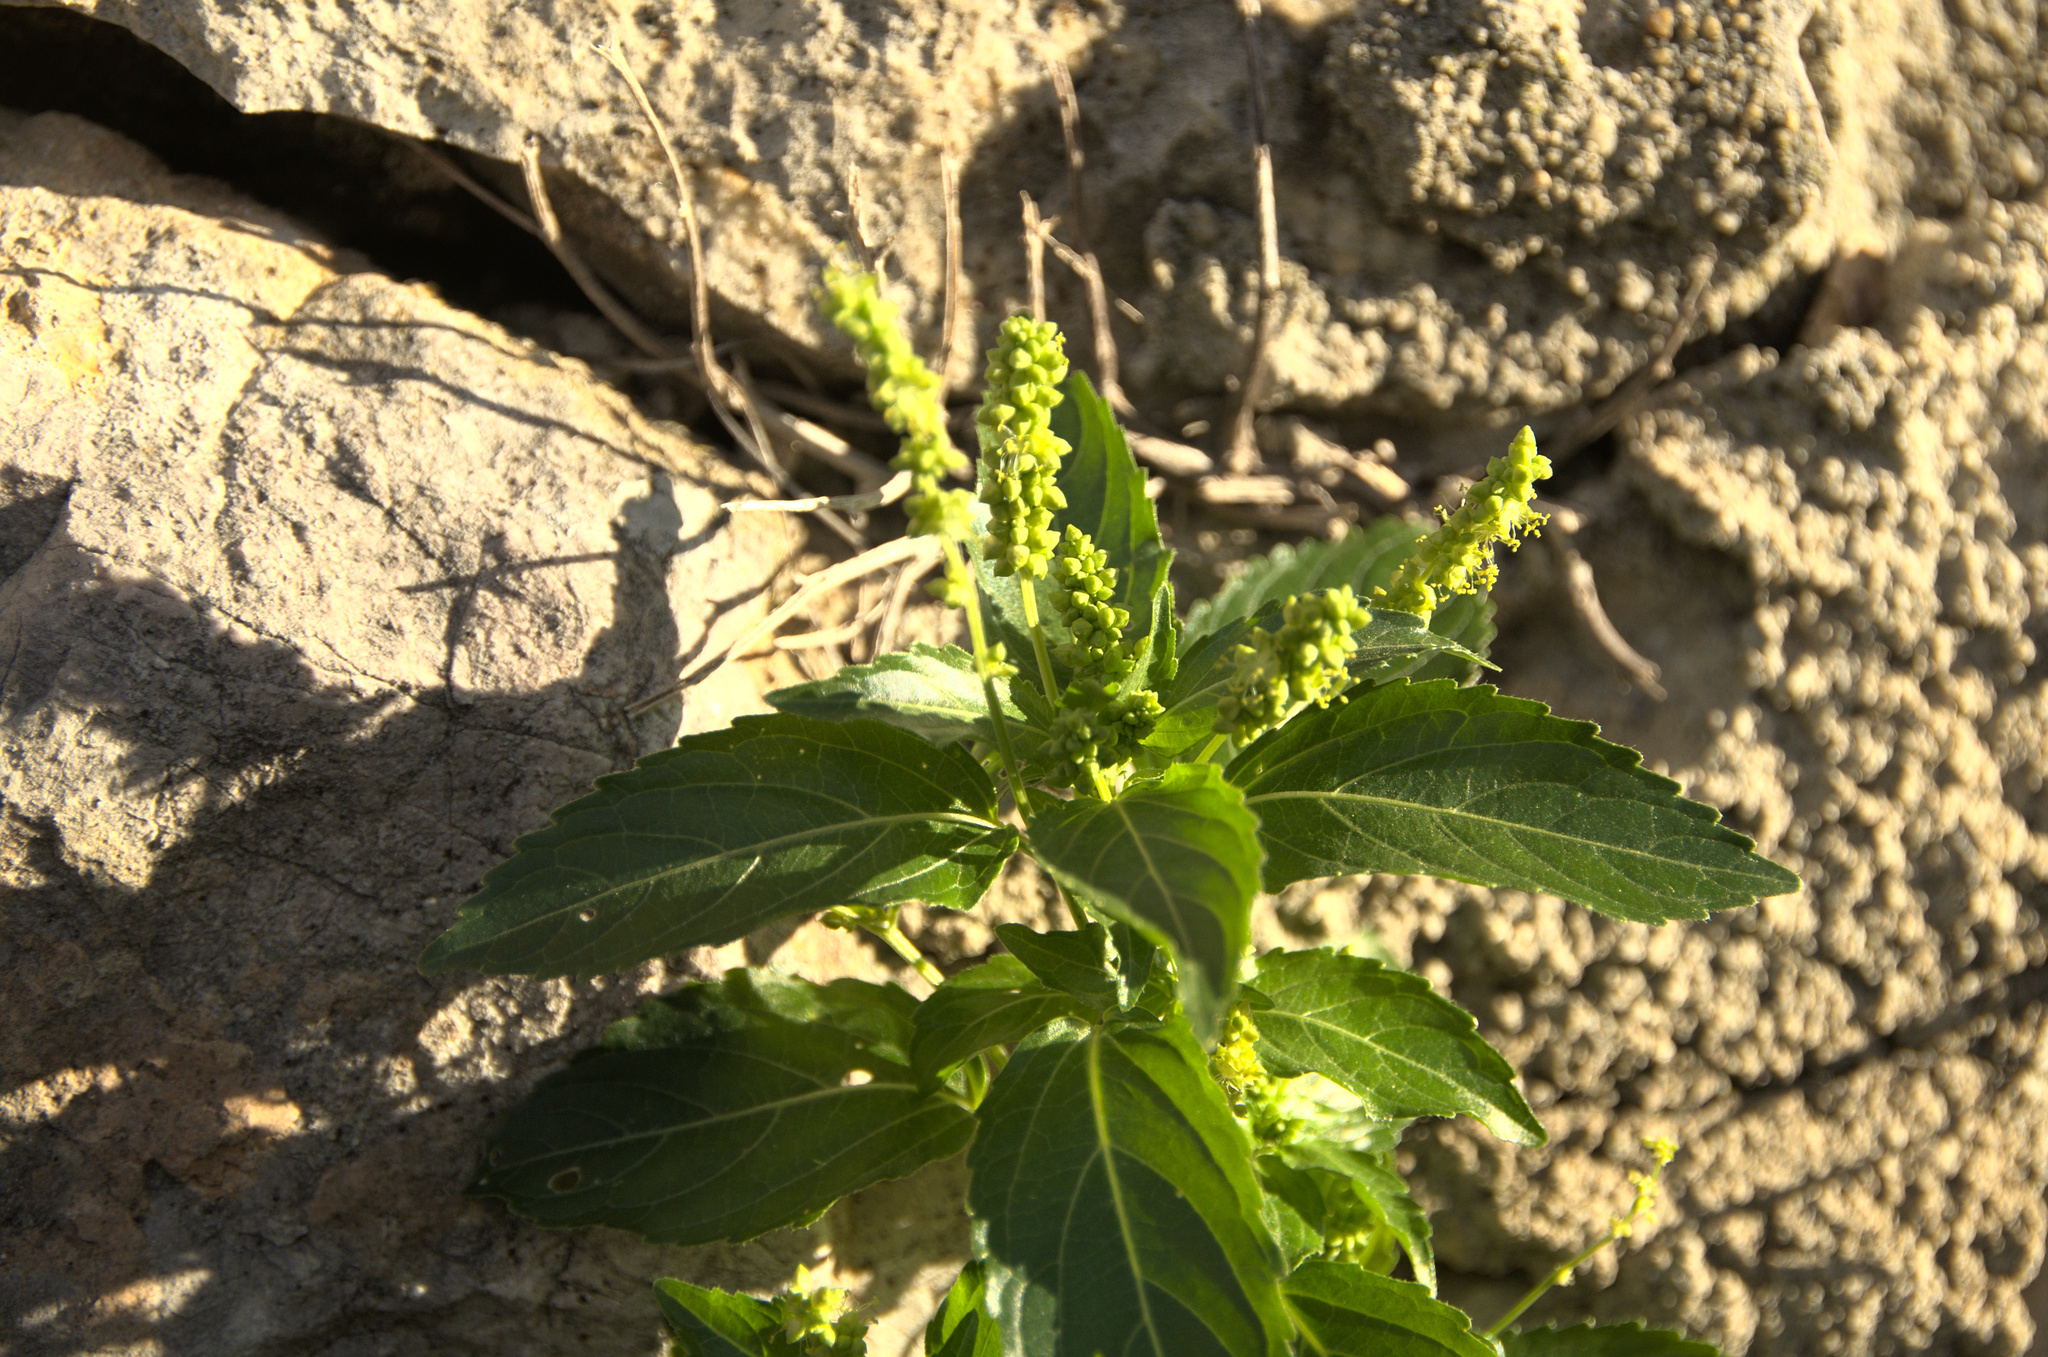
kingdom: Plantae
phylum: Tracheophyta
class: Magnoliopsida
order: Malpighiales
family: Euphorbiaceae
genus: Mercurialis
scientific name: Mercurialis annua
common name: Annual mercury
